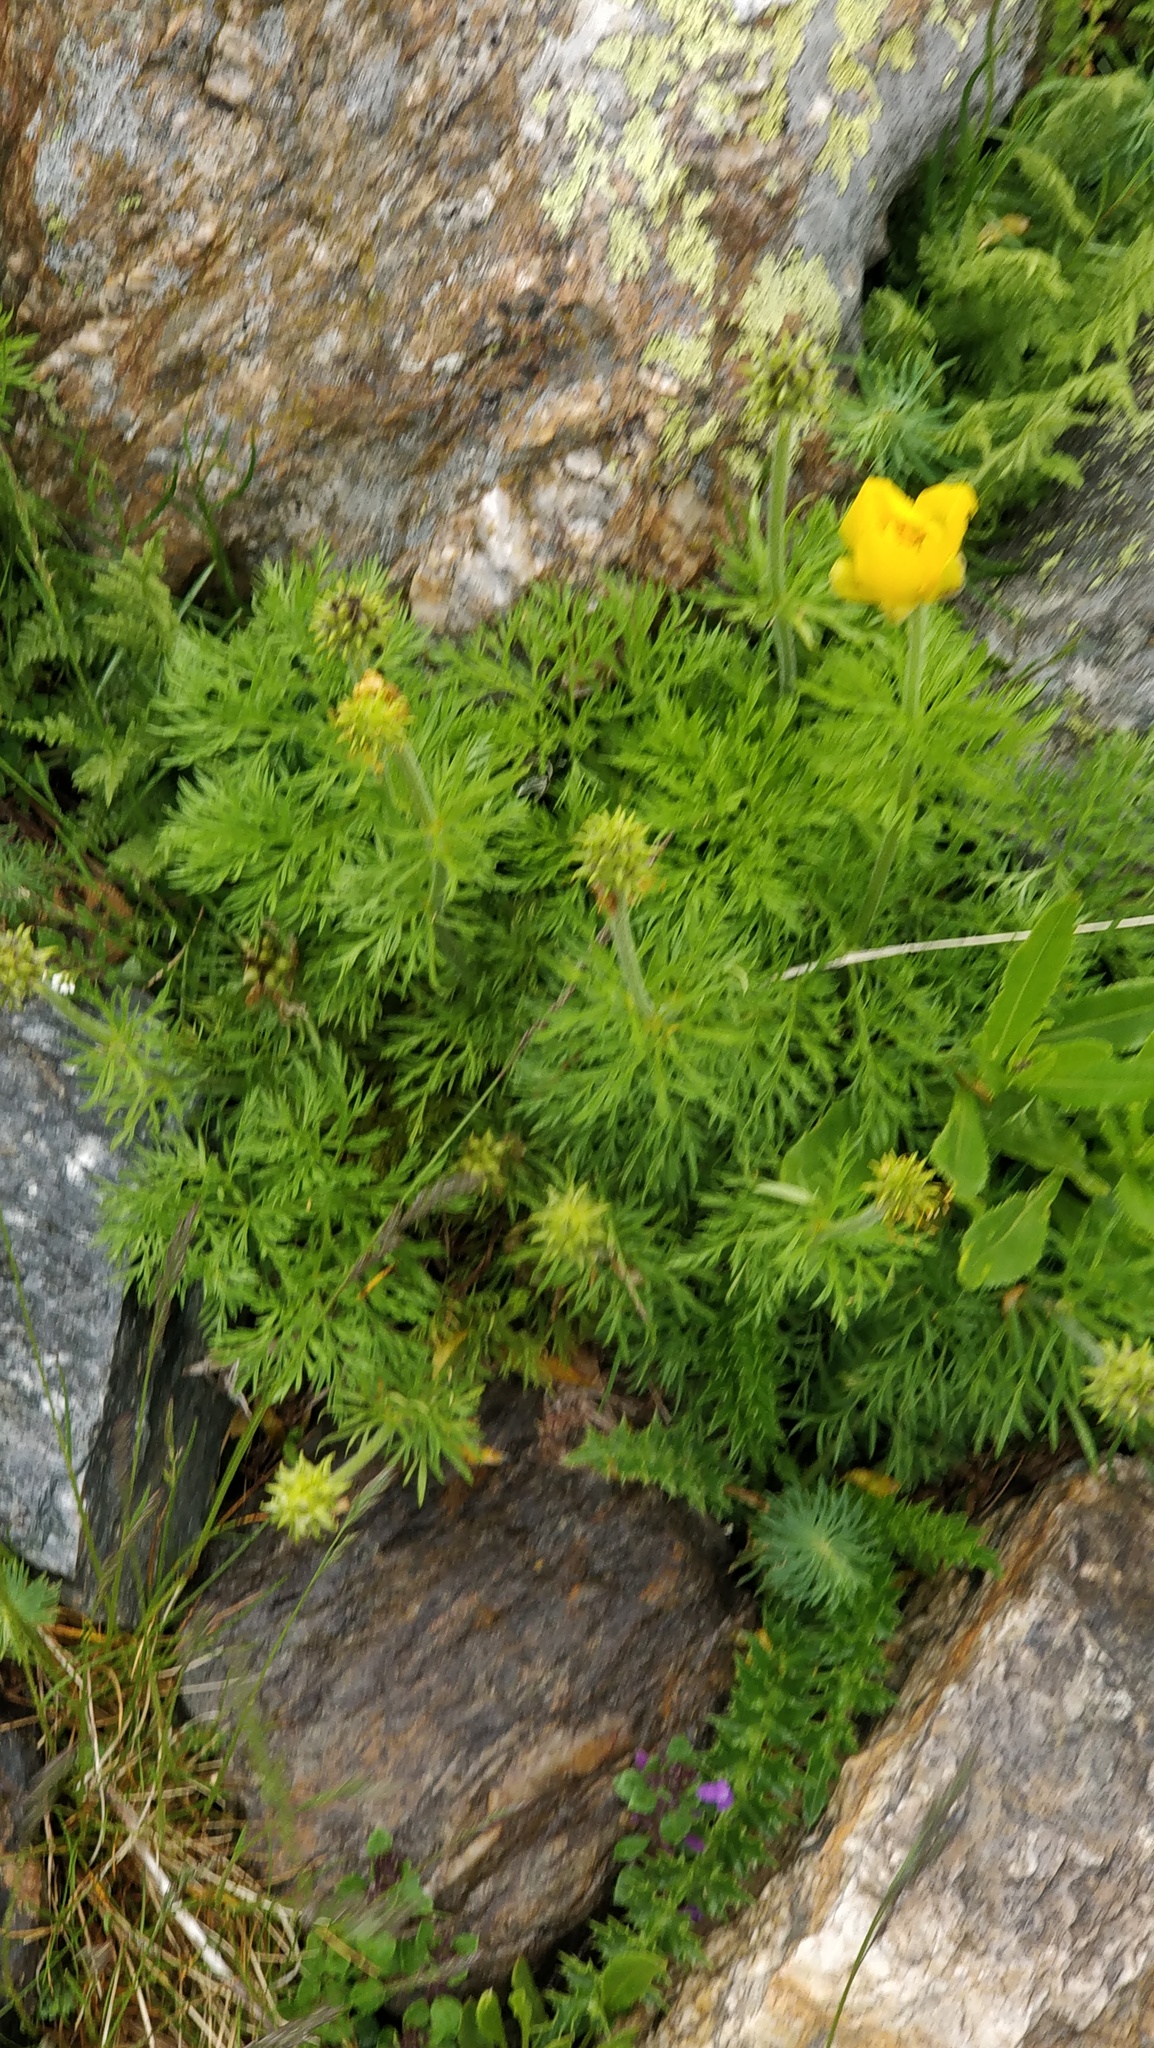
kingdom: Plantae
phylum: Tracheophyta
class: Magnoliopsida
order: Ranunculales
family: Ranunculaceae
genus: Adonis
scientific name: Adonis pyrenaica
